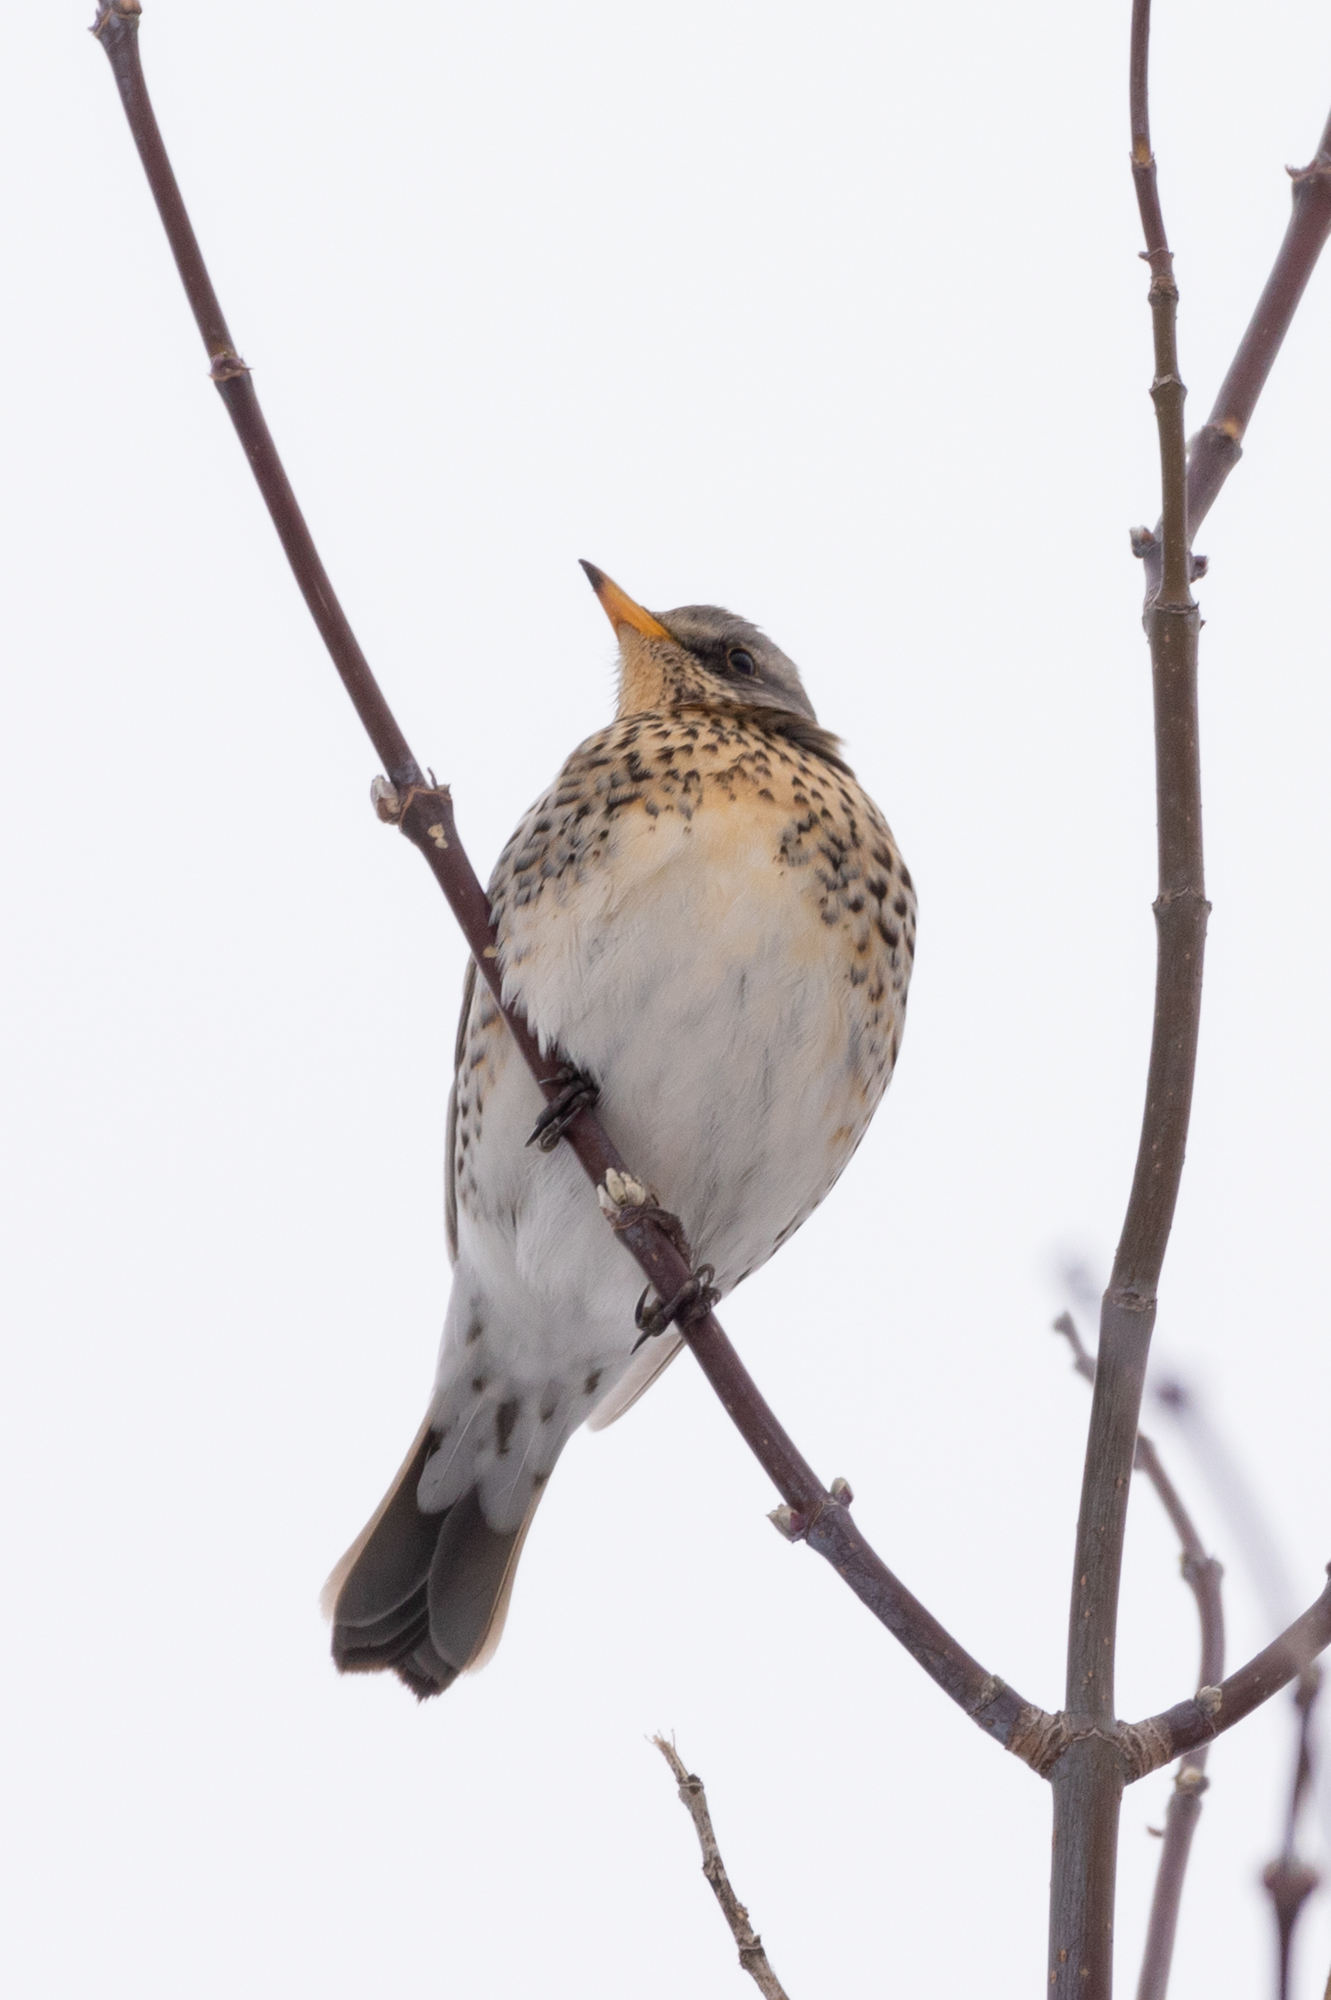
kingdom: Animalia
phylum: Chordata
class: Aves
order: Passeriformes
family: Turdidae
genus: Turdus
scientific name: Turdus pilaris
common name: Fieldfare
